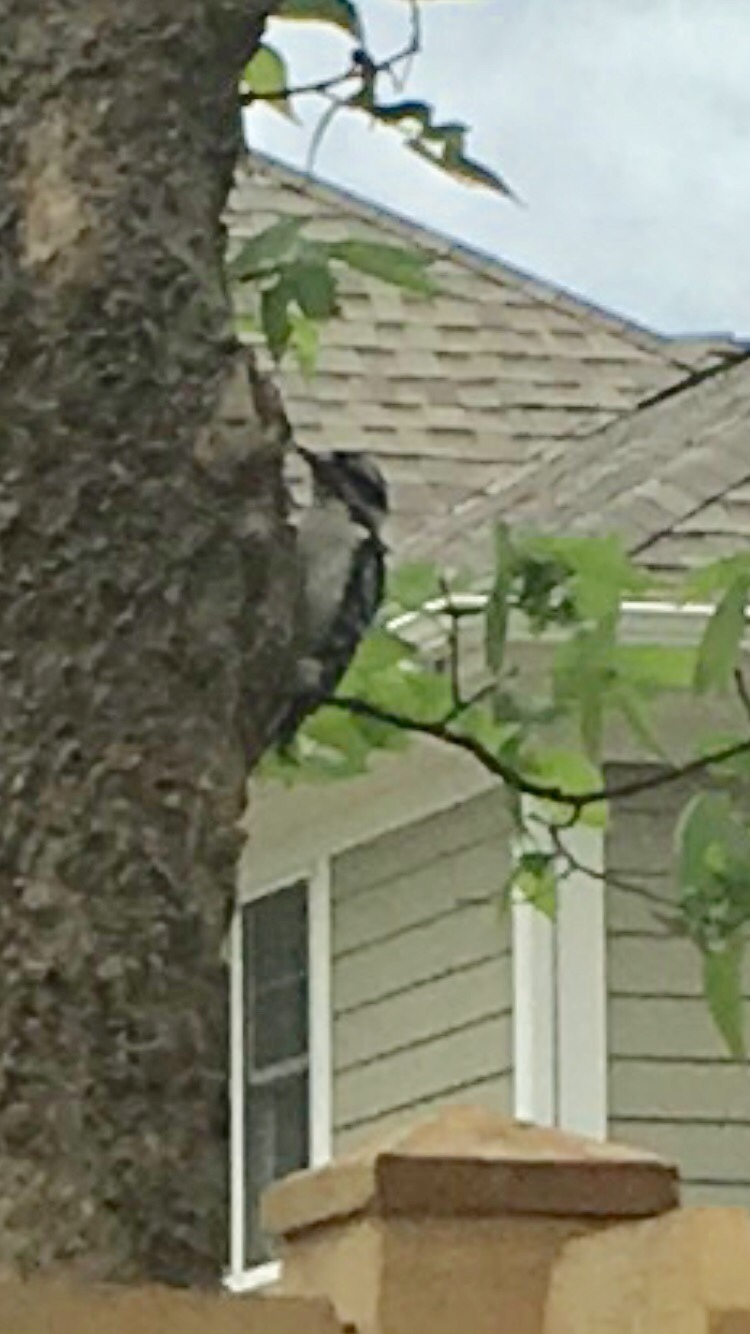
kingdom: Animalia
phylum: Chordata
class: Aves
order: Piciformes
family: Picidae
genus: Dryobates
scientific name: Dryobates pubescens
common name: Downy woodpecker
